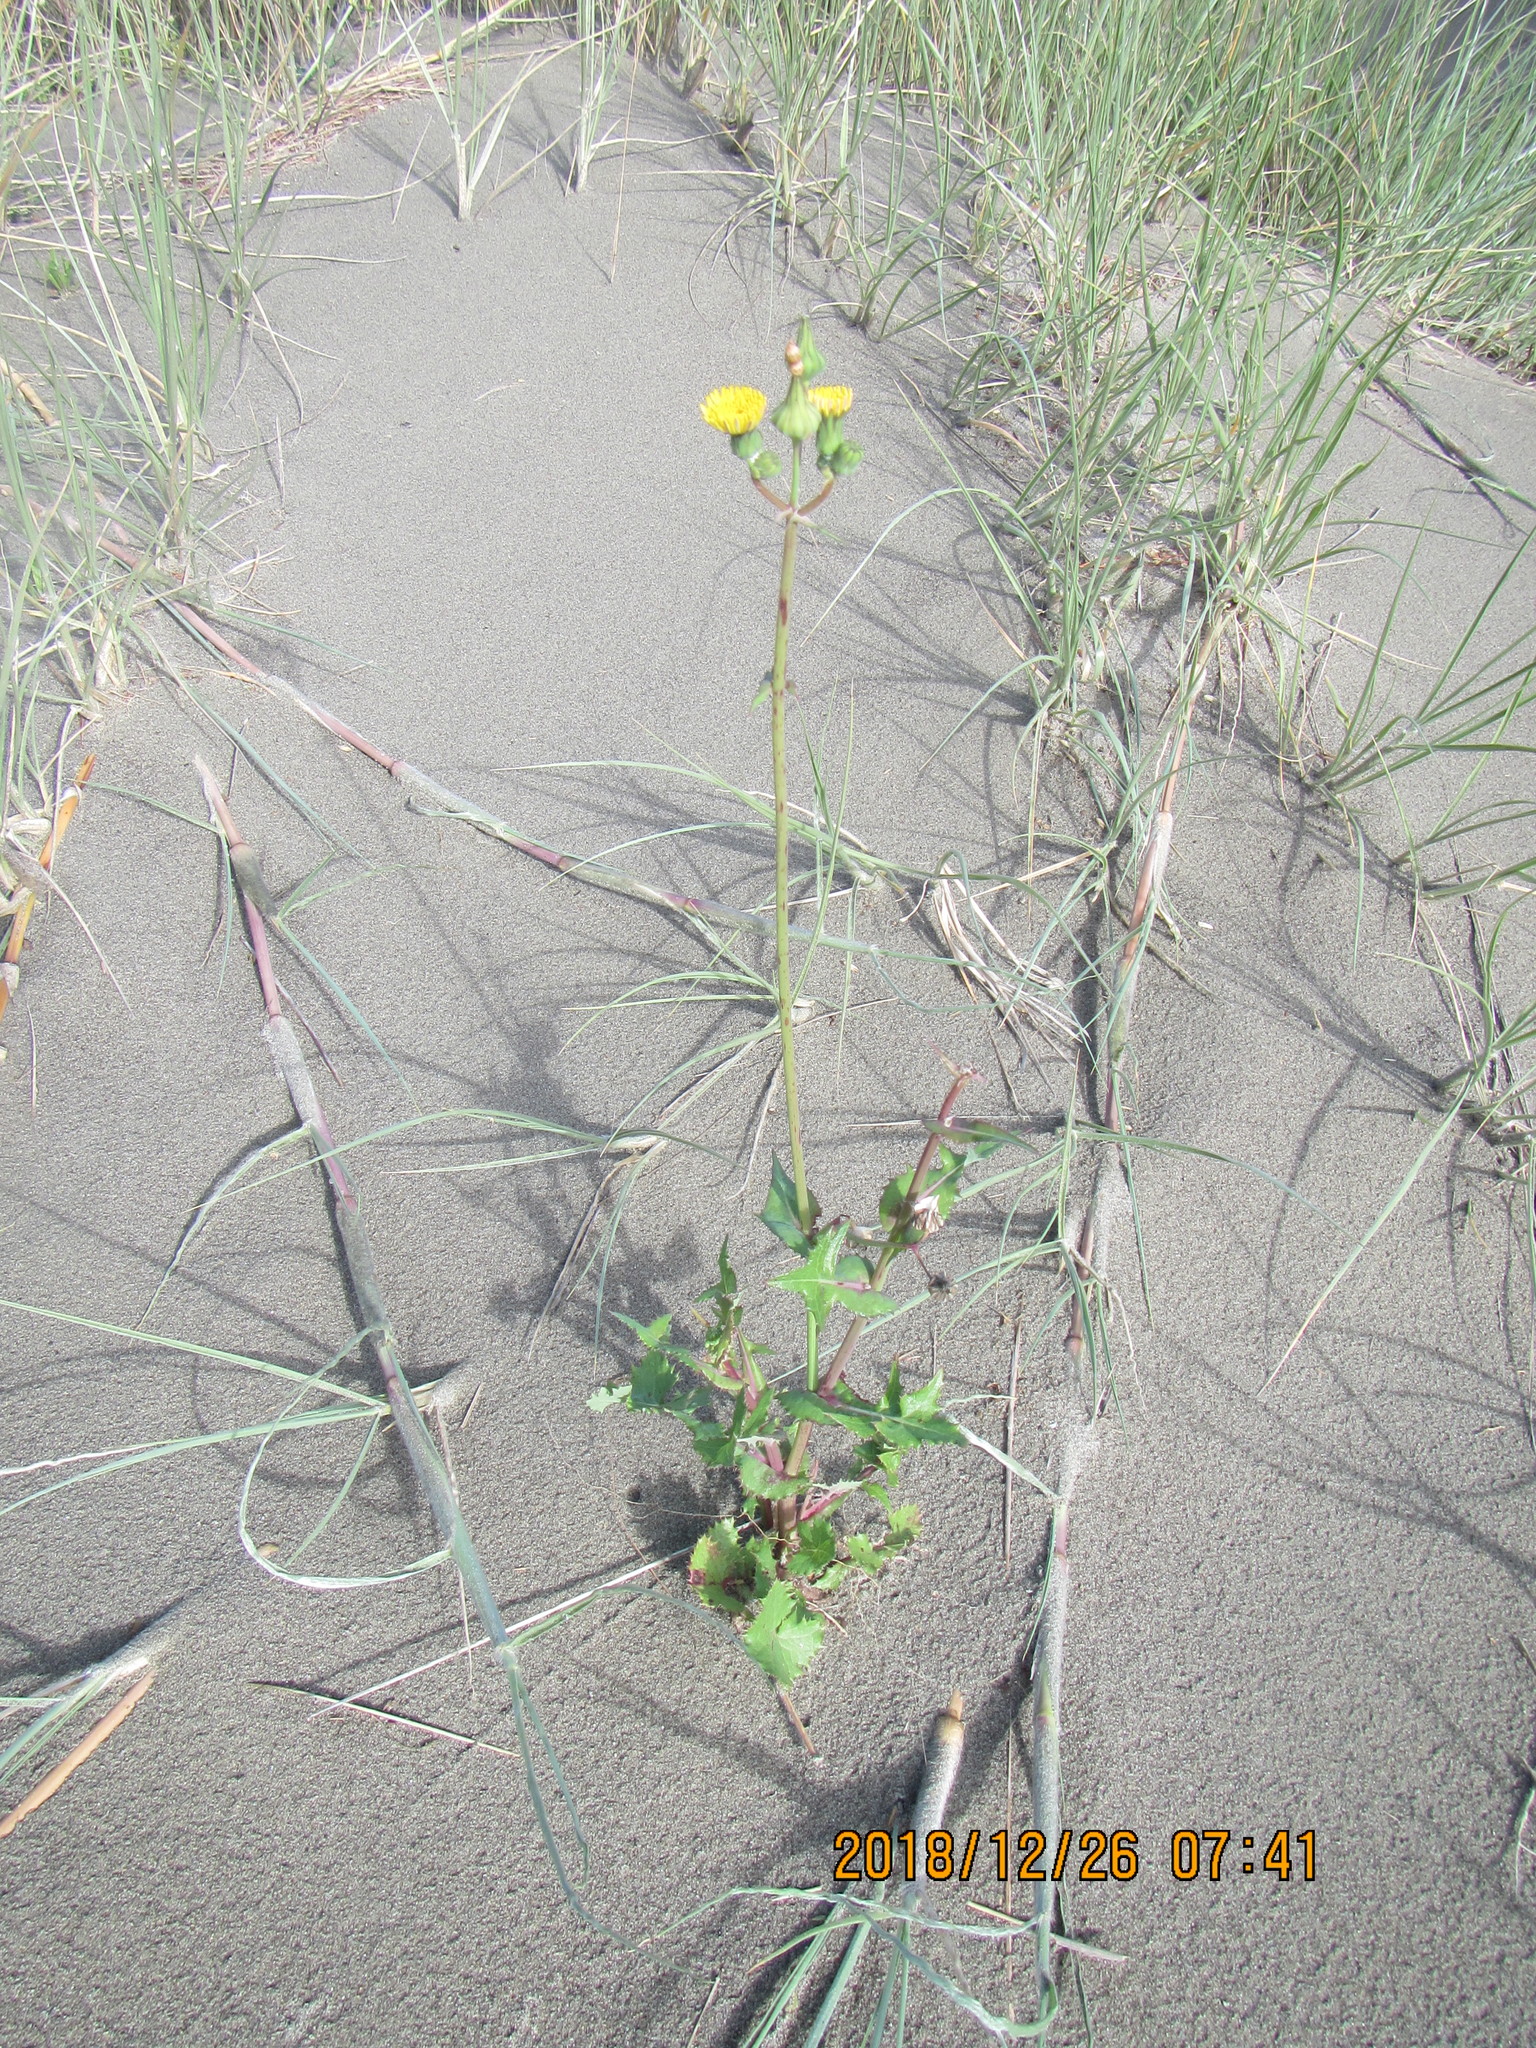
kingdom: Plantae
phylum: Tracheophyta
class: Magnoliopsida
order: Asterales
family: Asteraceae
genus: Sonchus
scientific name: Sonchus oleraceus
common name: Common sowthistle
